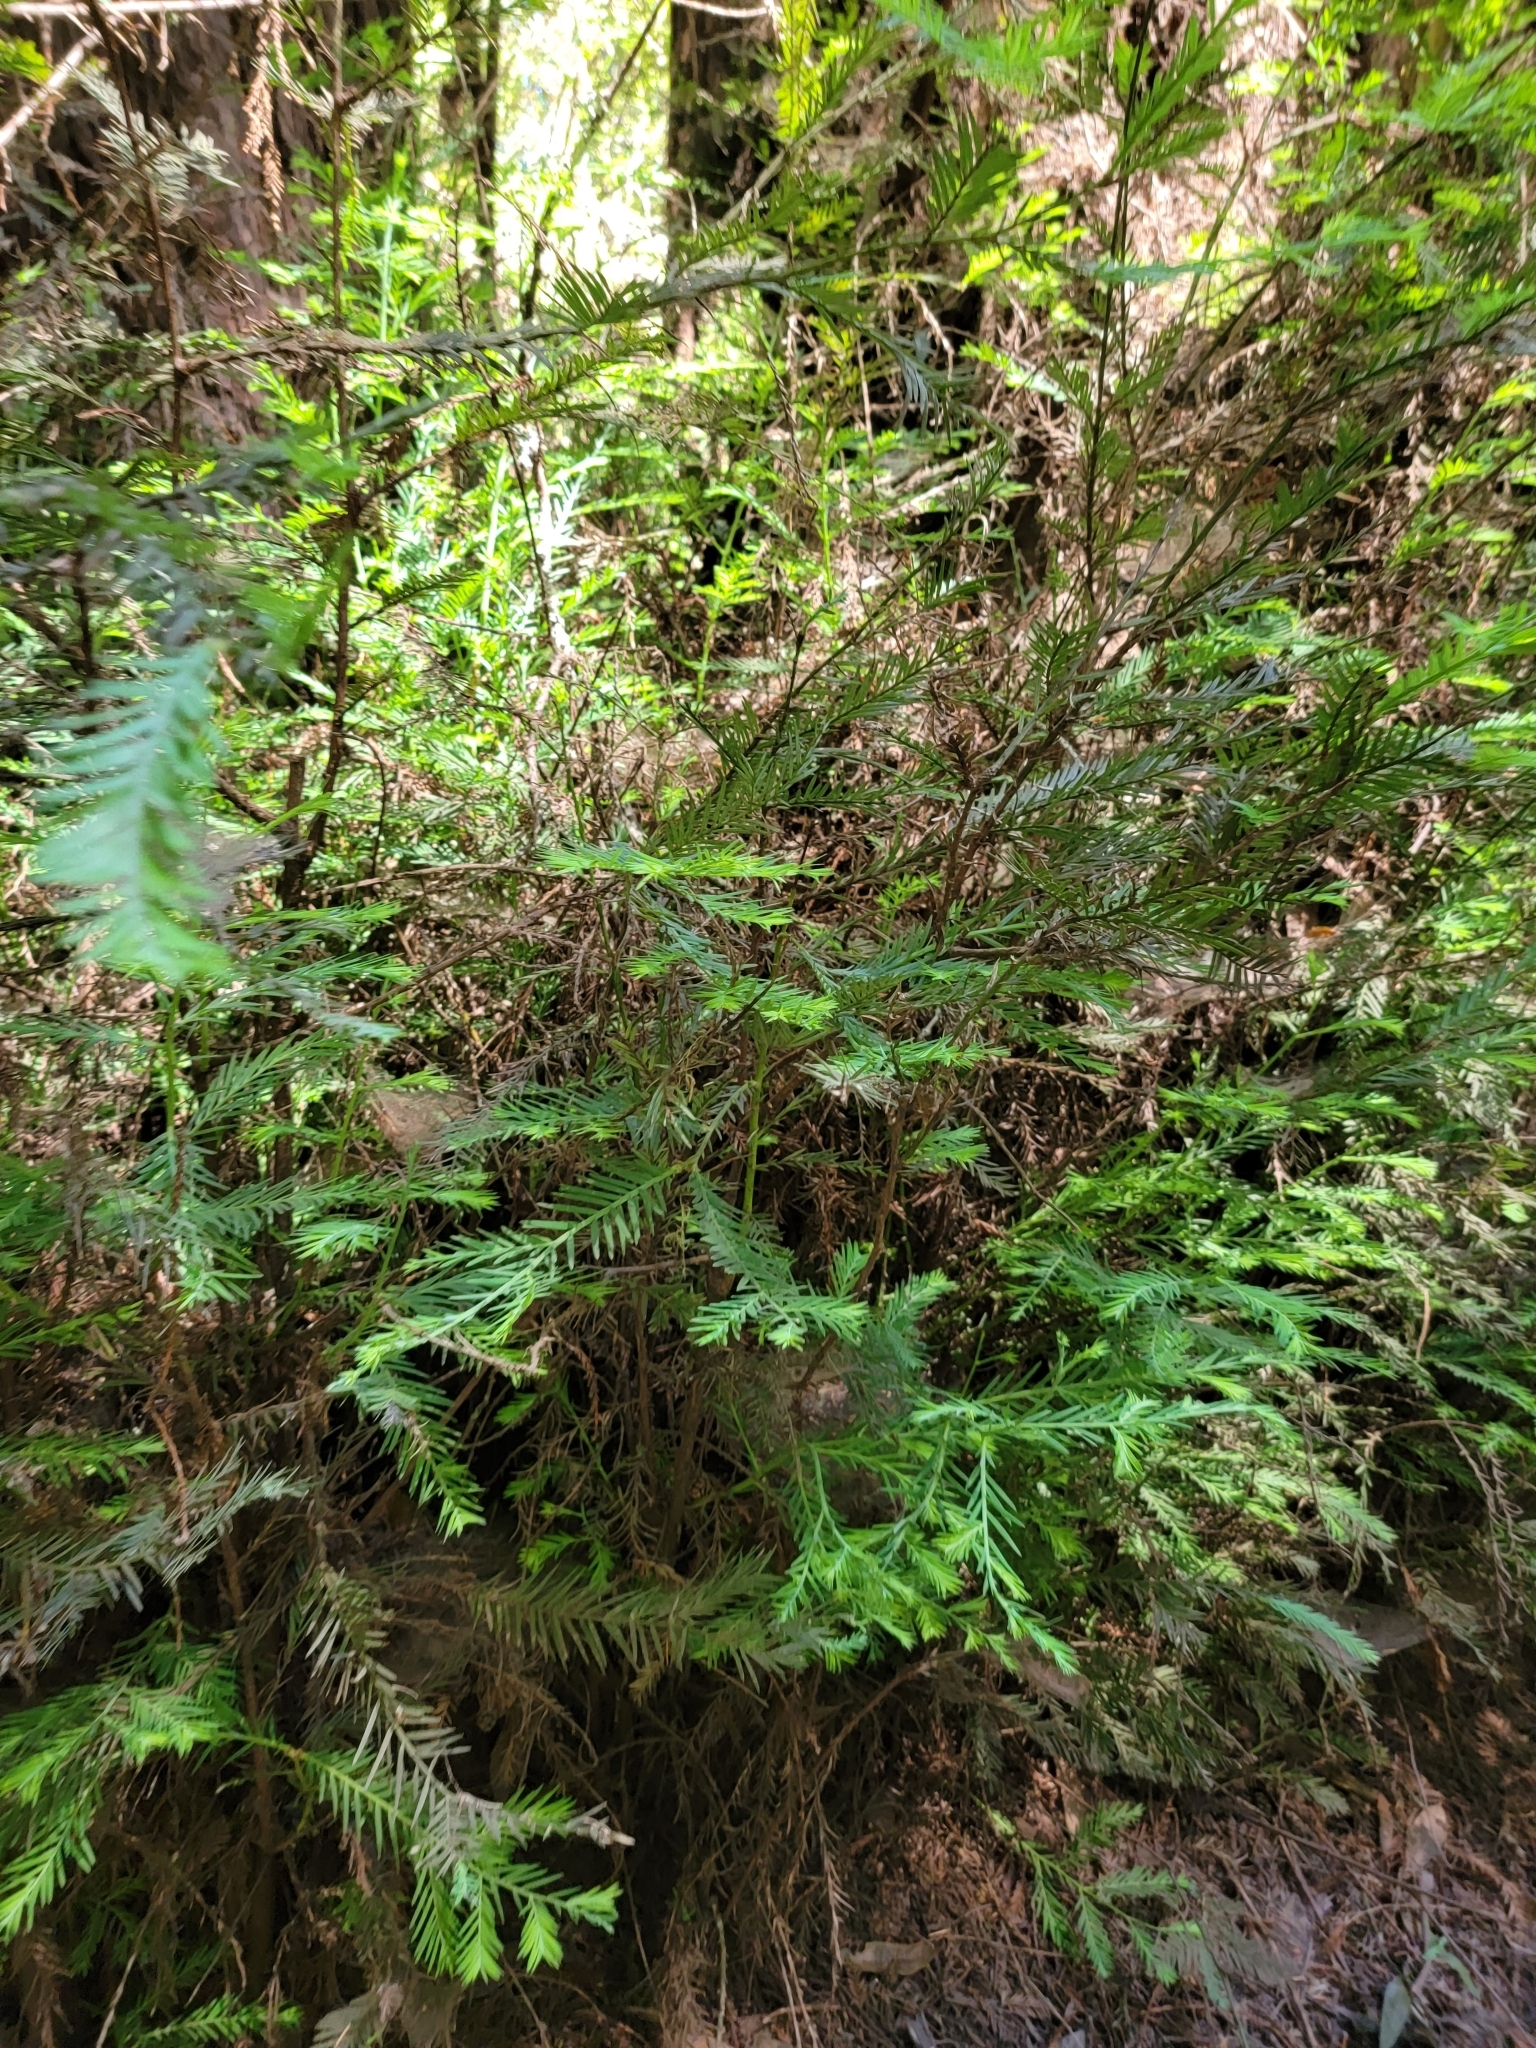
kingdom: Plantae
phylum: Tracheophyta
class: Pinopsida
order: Pinales
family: Cupressaceae
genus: Sequoia
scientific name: Sequoia sempervirens
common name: Coast redwood
